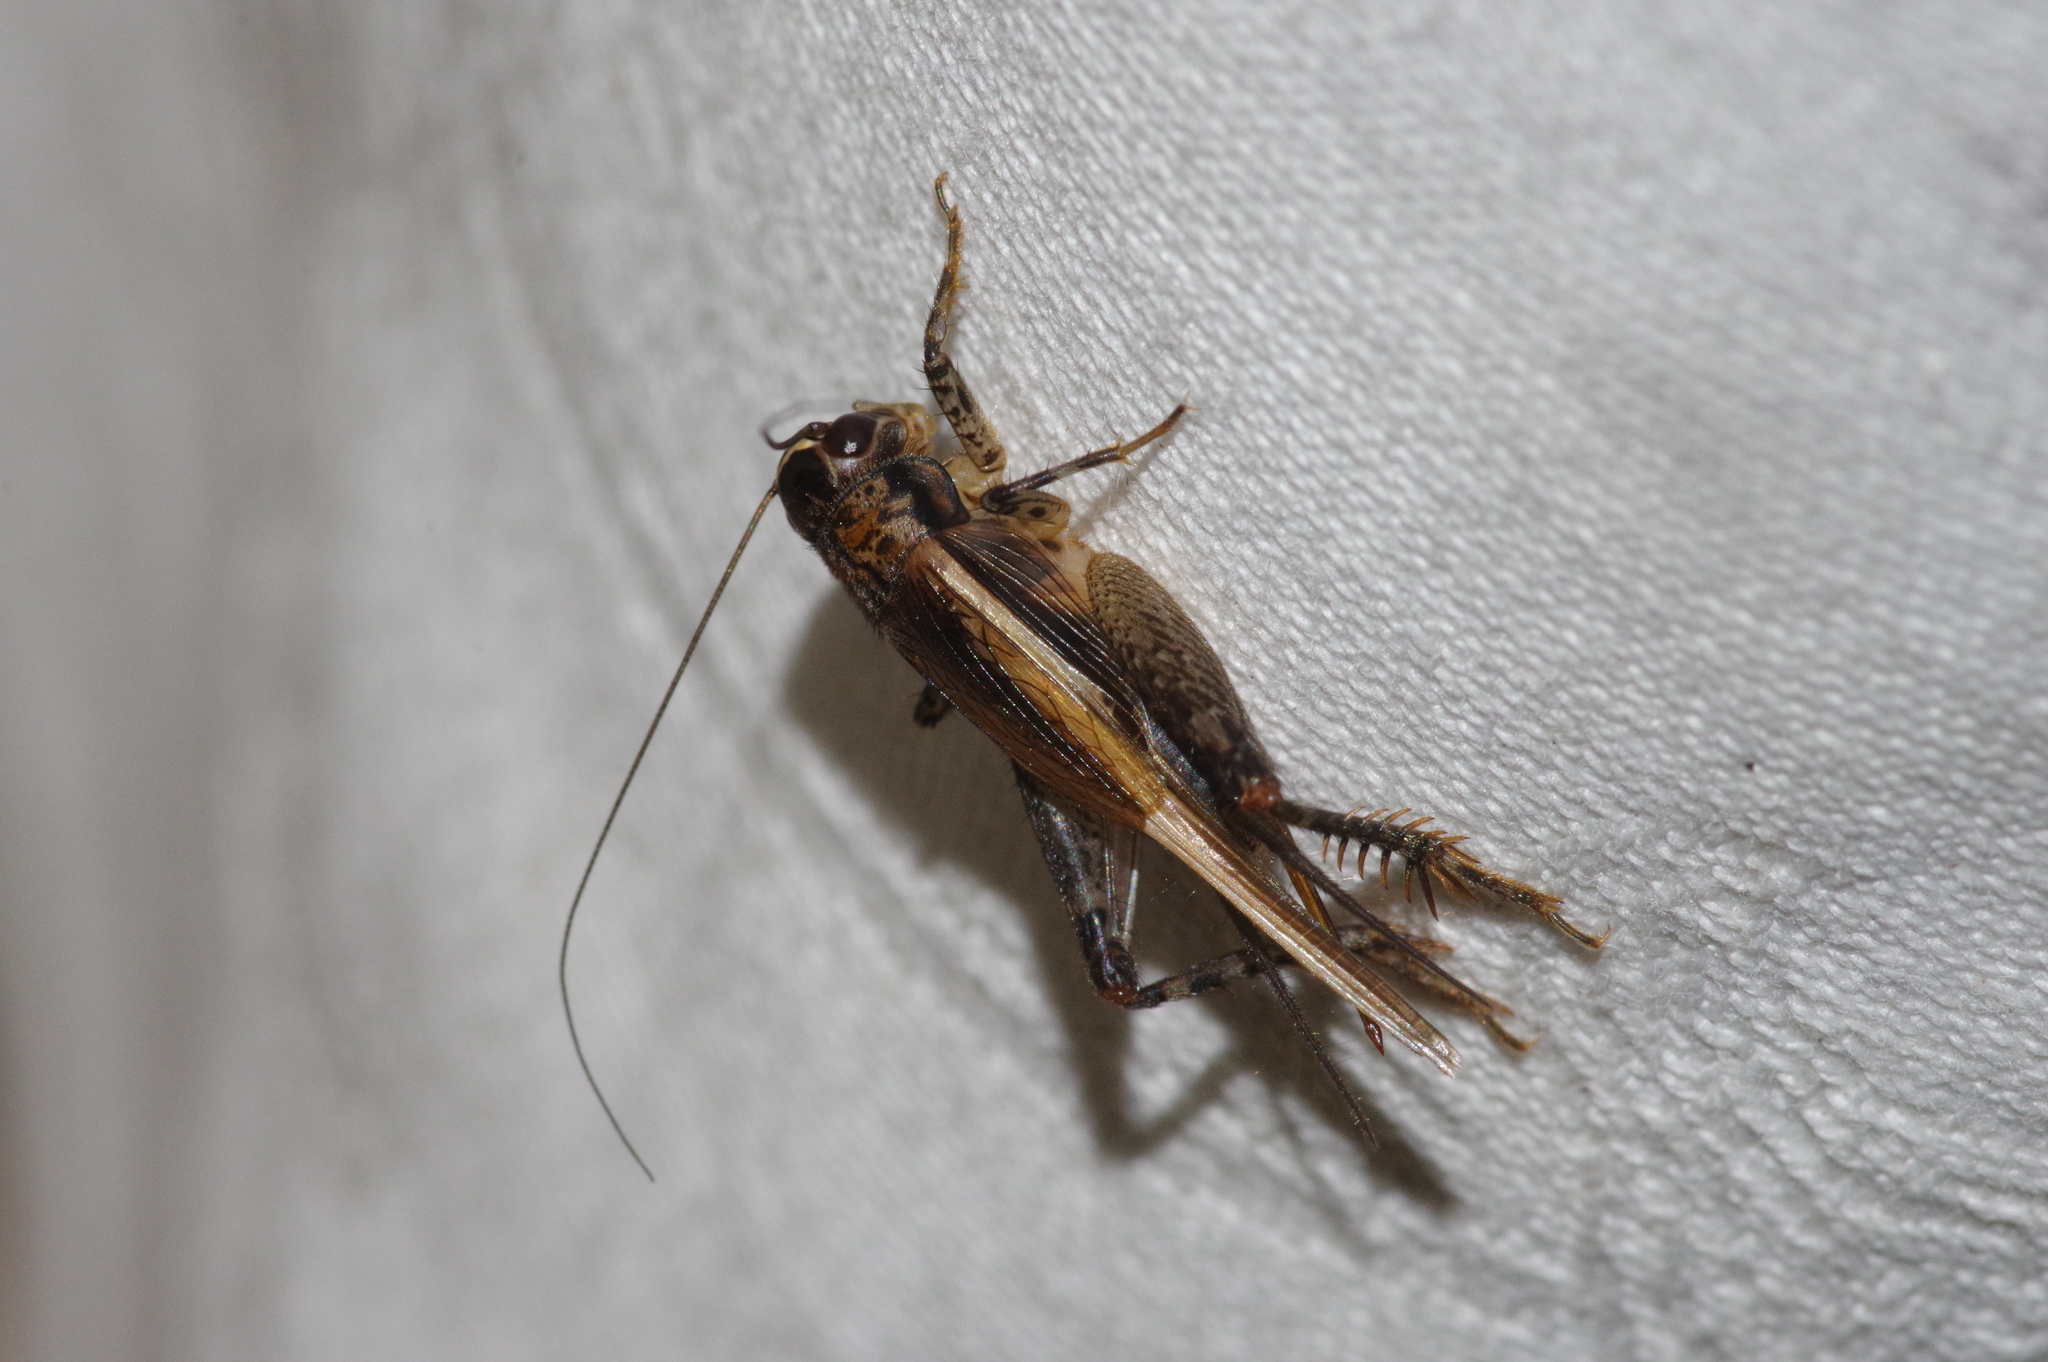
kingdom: Animalia
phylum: Arthropoda
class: Insecta
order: Orthoptera
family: Gryllidae
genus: Loxoblemmus
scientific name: Loxoblemmus equestris
